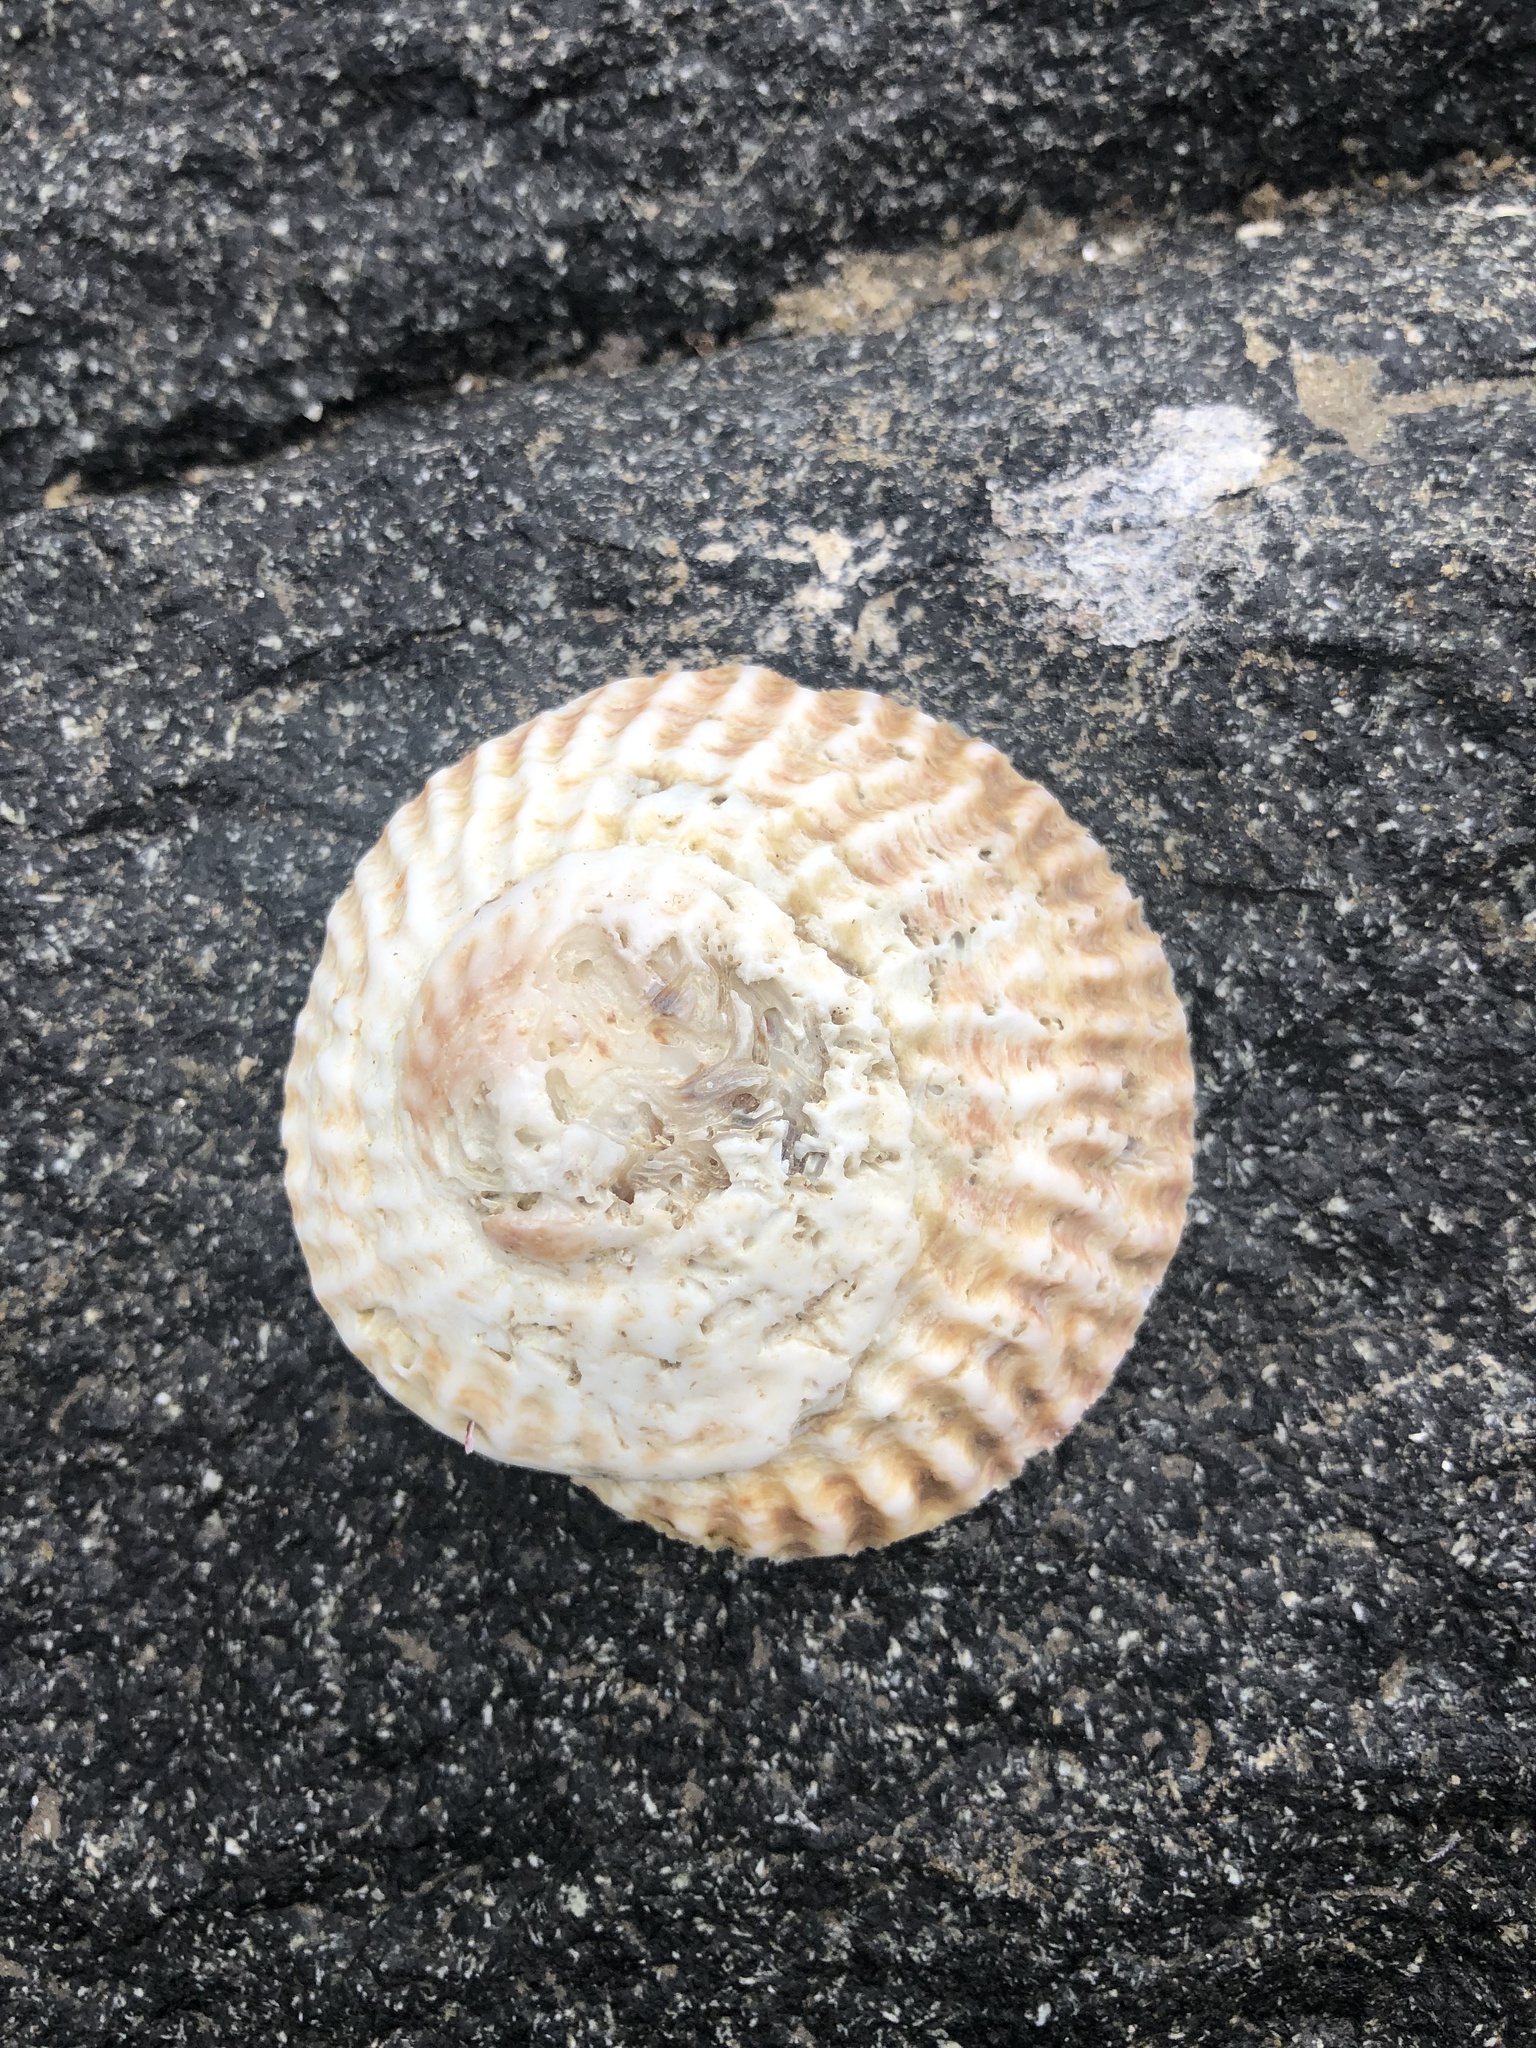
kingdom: Animalia
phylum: Mollusca
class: Gastropoda
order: Littorinimorpha
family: Calyptraeidae
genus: Trochita
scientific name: Trochita trochiformis
